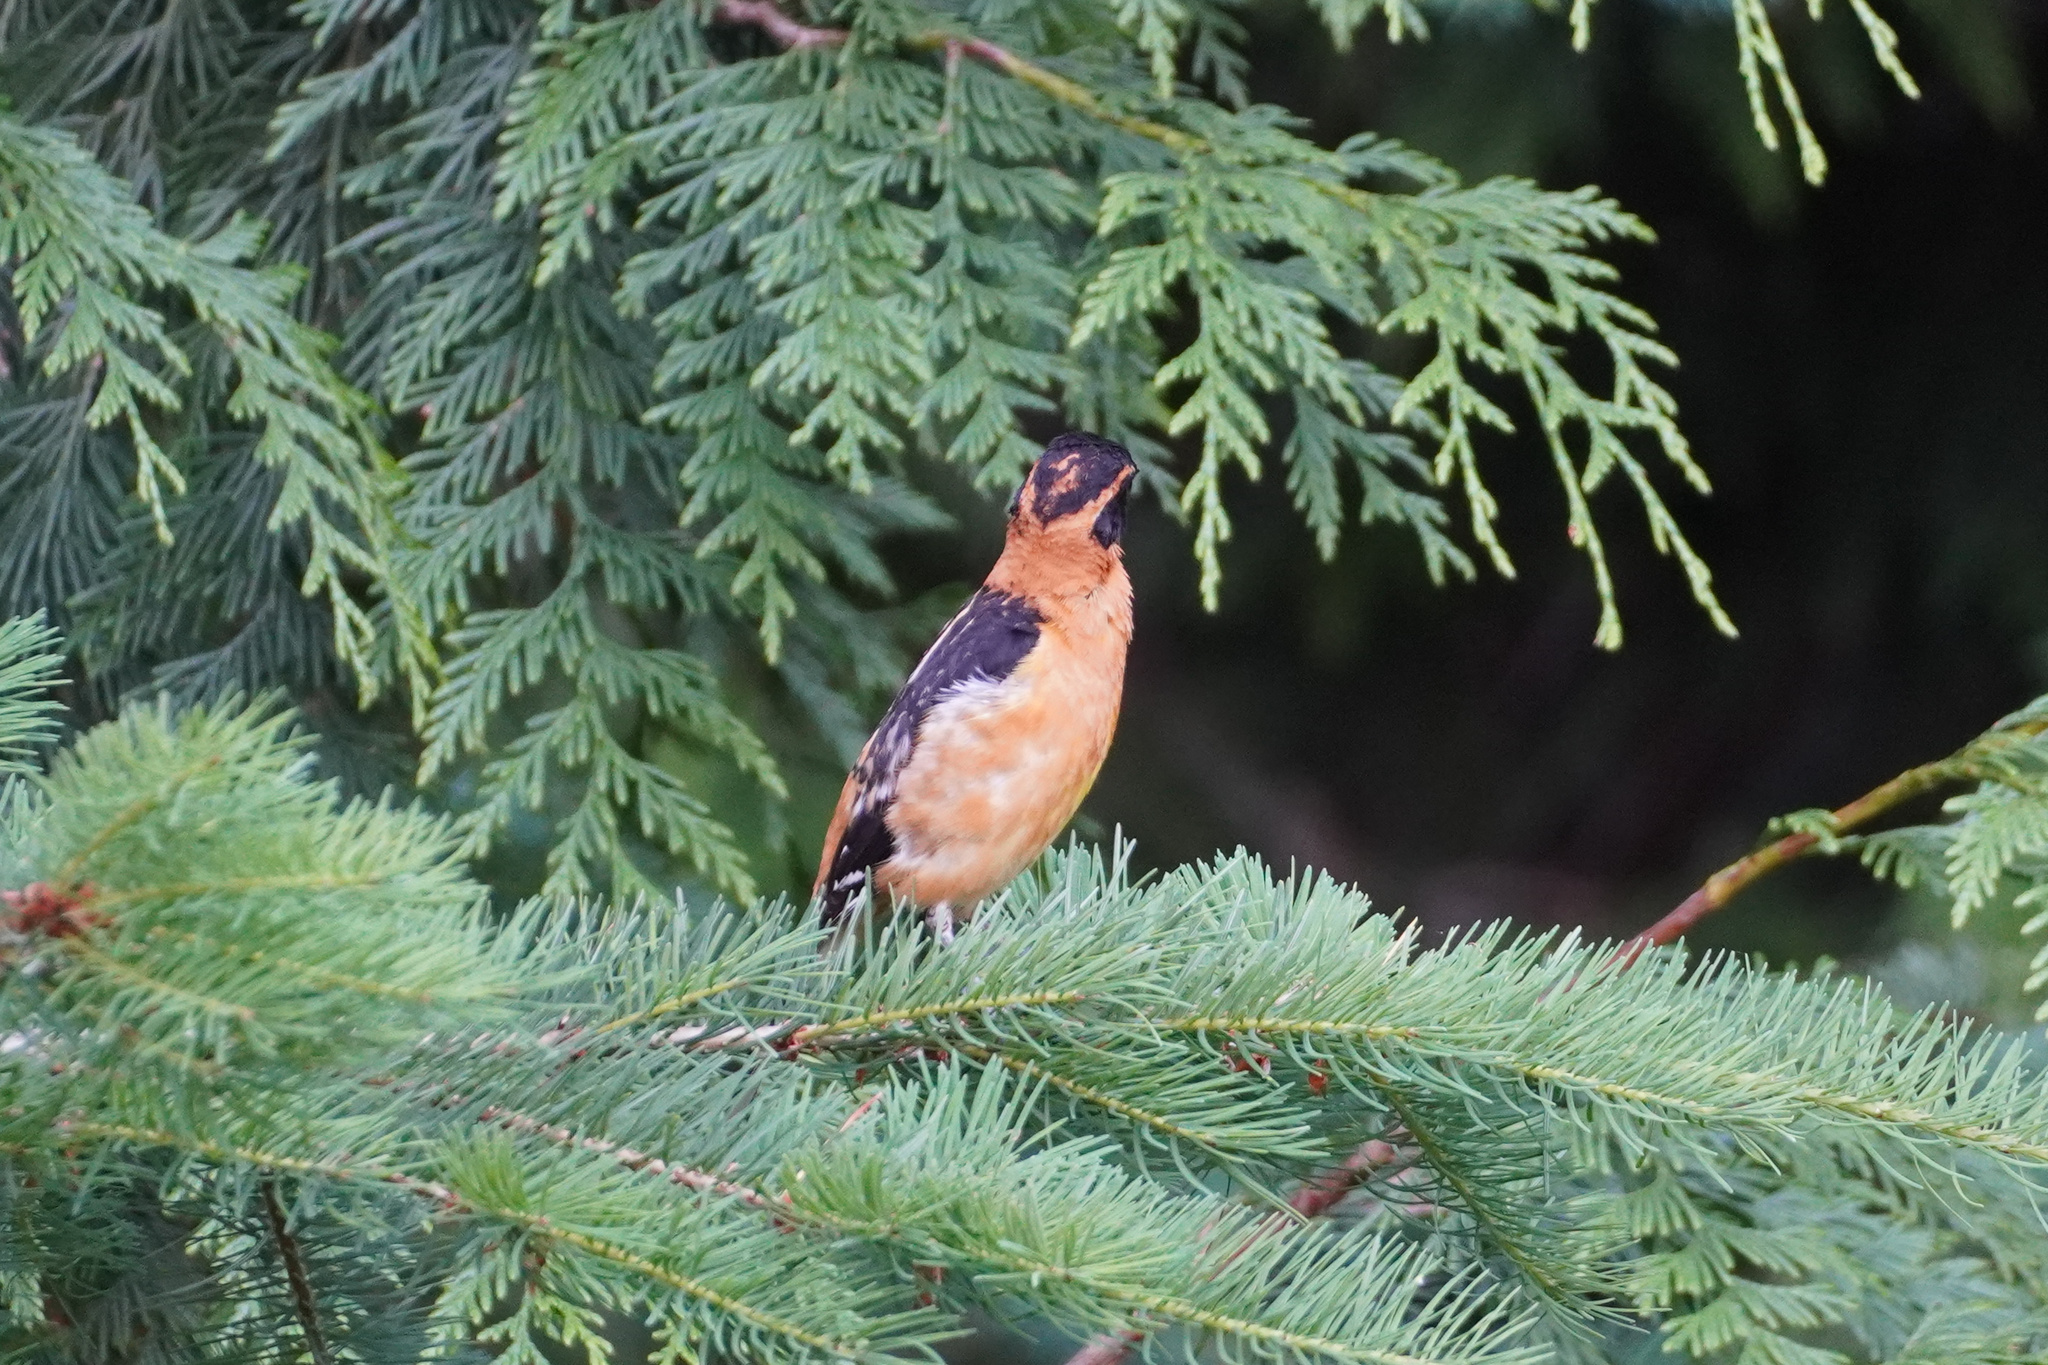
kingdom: Animalia
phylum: Chordata
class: Aves
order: Passeriformes
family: Cardinalidae
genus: Pheucticus
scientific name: Pheucticus melanocephalus
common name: Black-headed grosbeak
